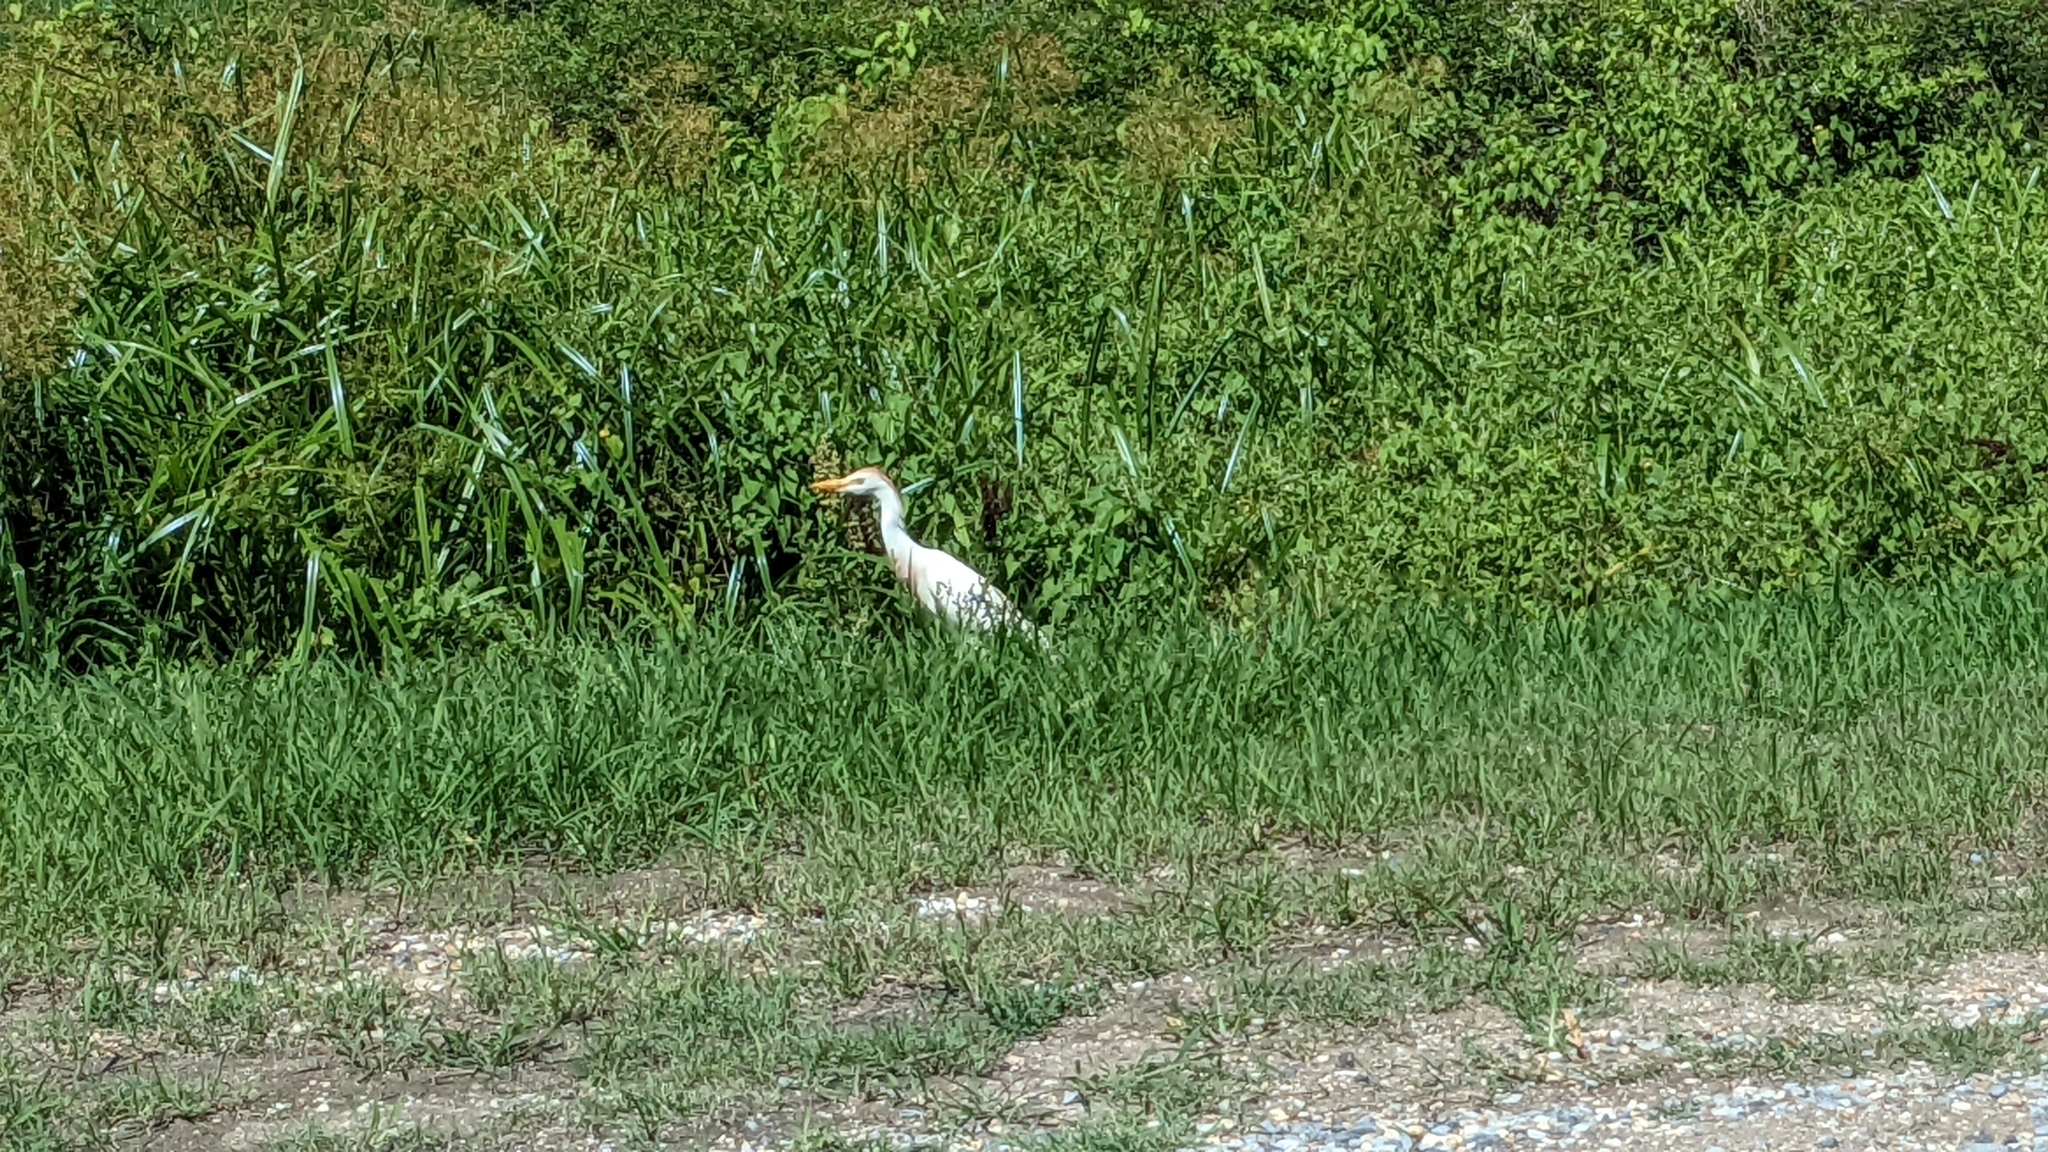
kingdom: Animalia
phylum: Chordata
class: Aves
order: Pelecaniformes
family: Ardeidae
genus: Bubulcus
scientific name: Bubulcus ibis
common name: Cattle egret
